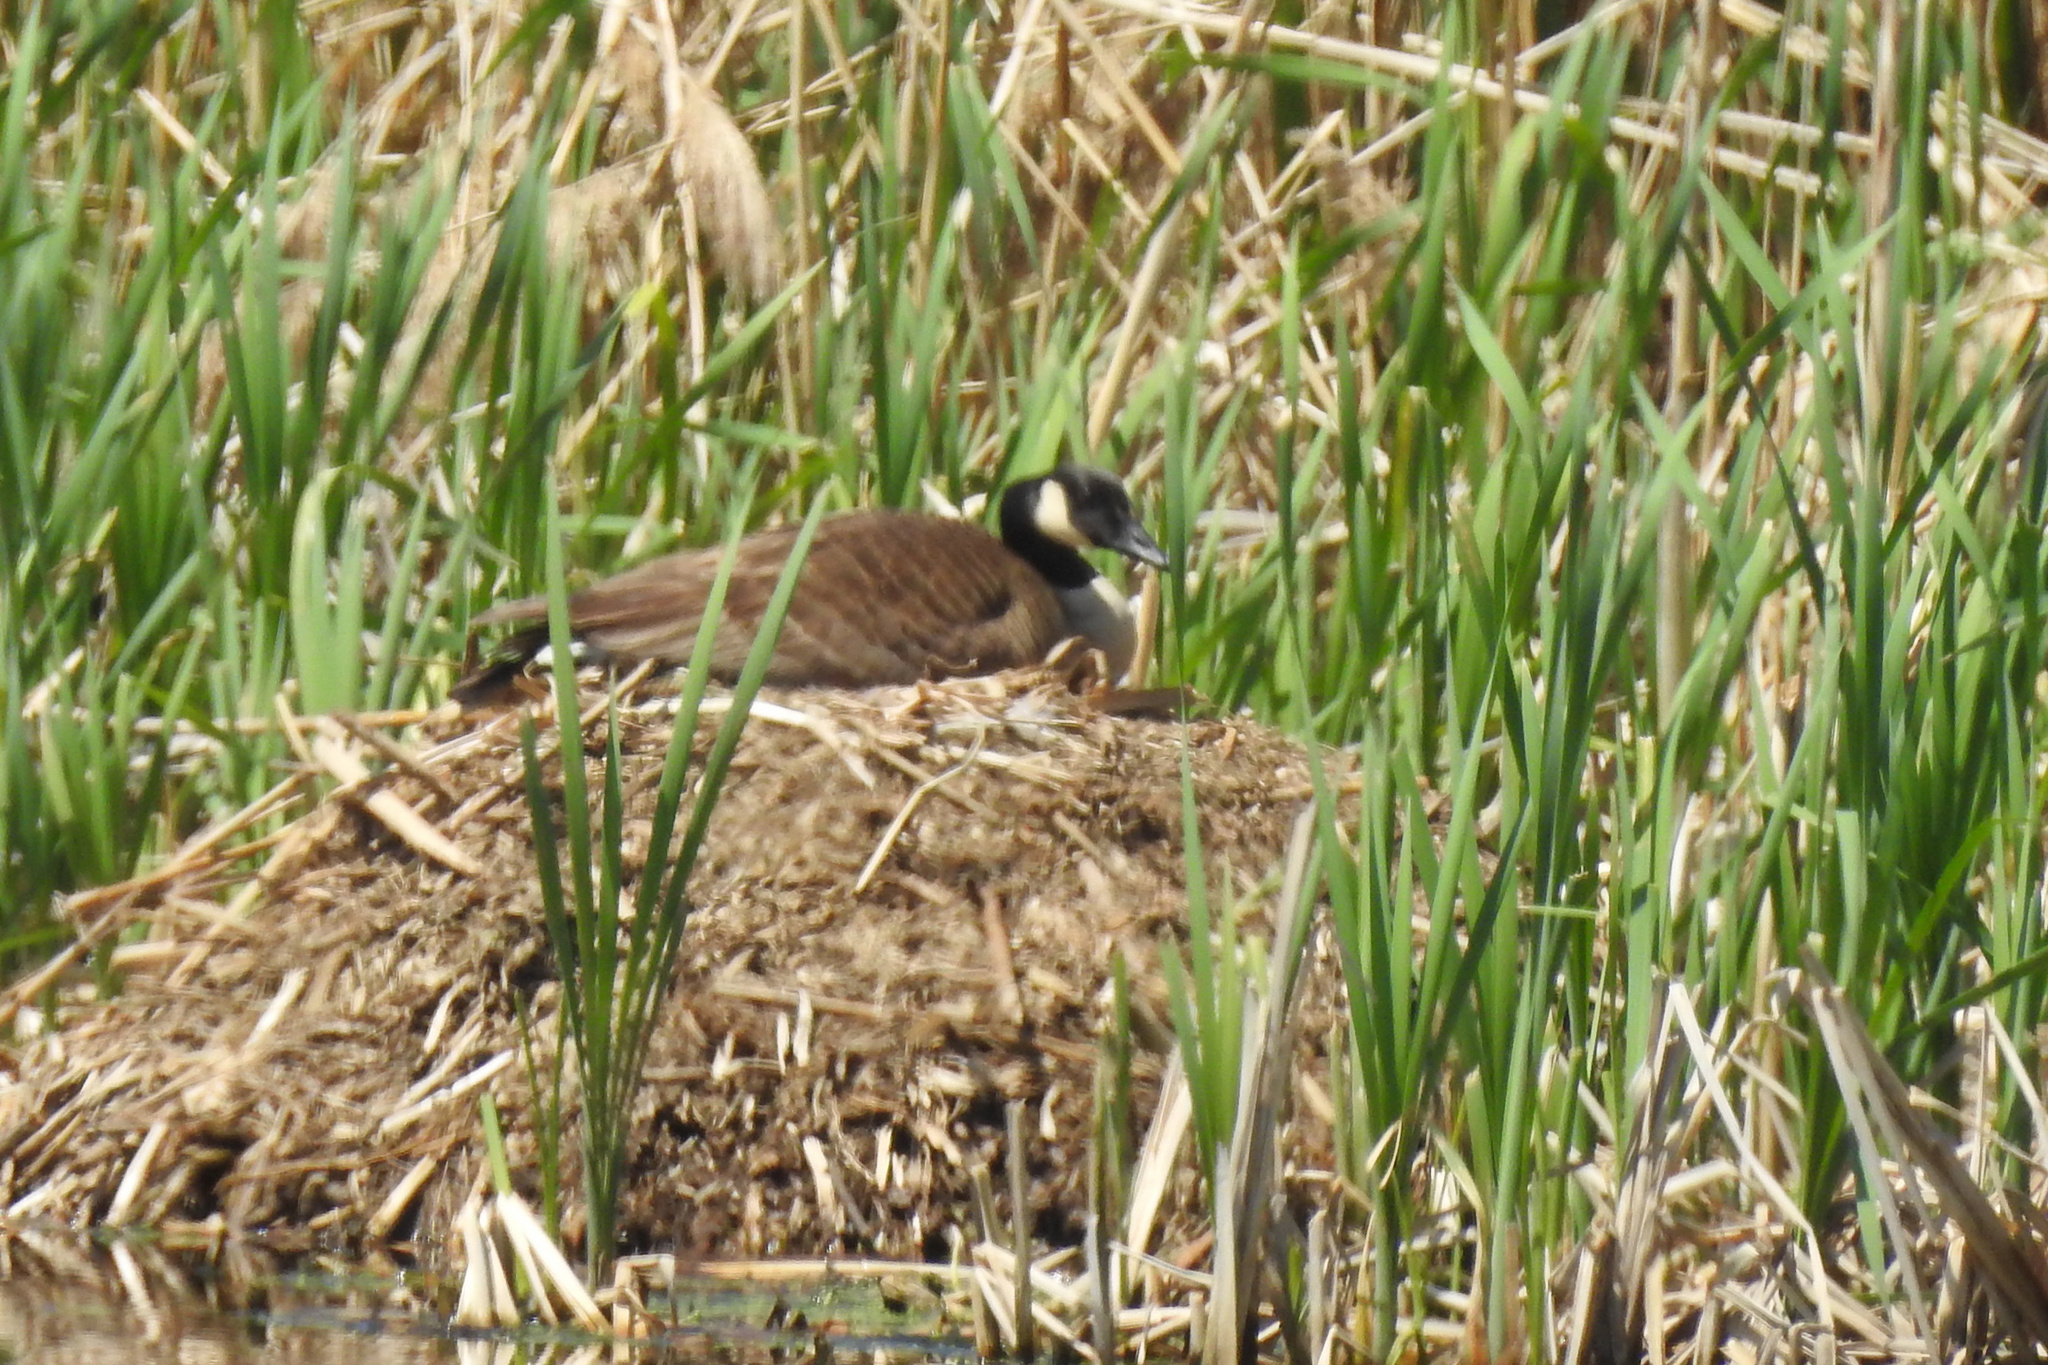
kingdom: Animalia
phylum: Chordata
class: Aves
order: Anseriformes
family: Anatidae
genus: Branta
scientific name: Branta canadensis
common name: Canada goose
